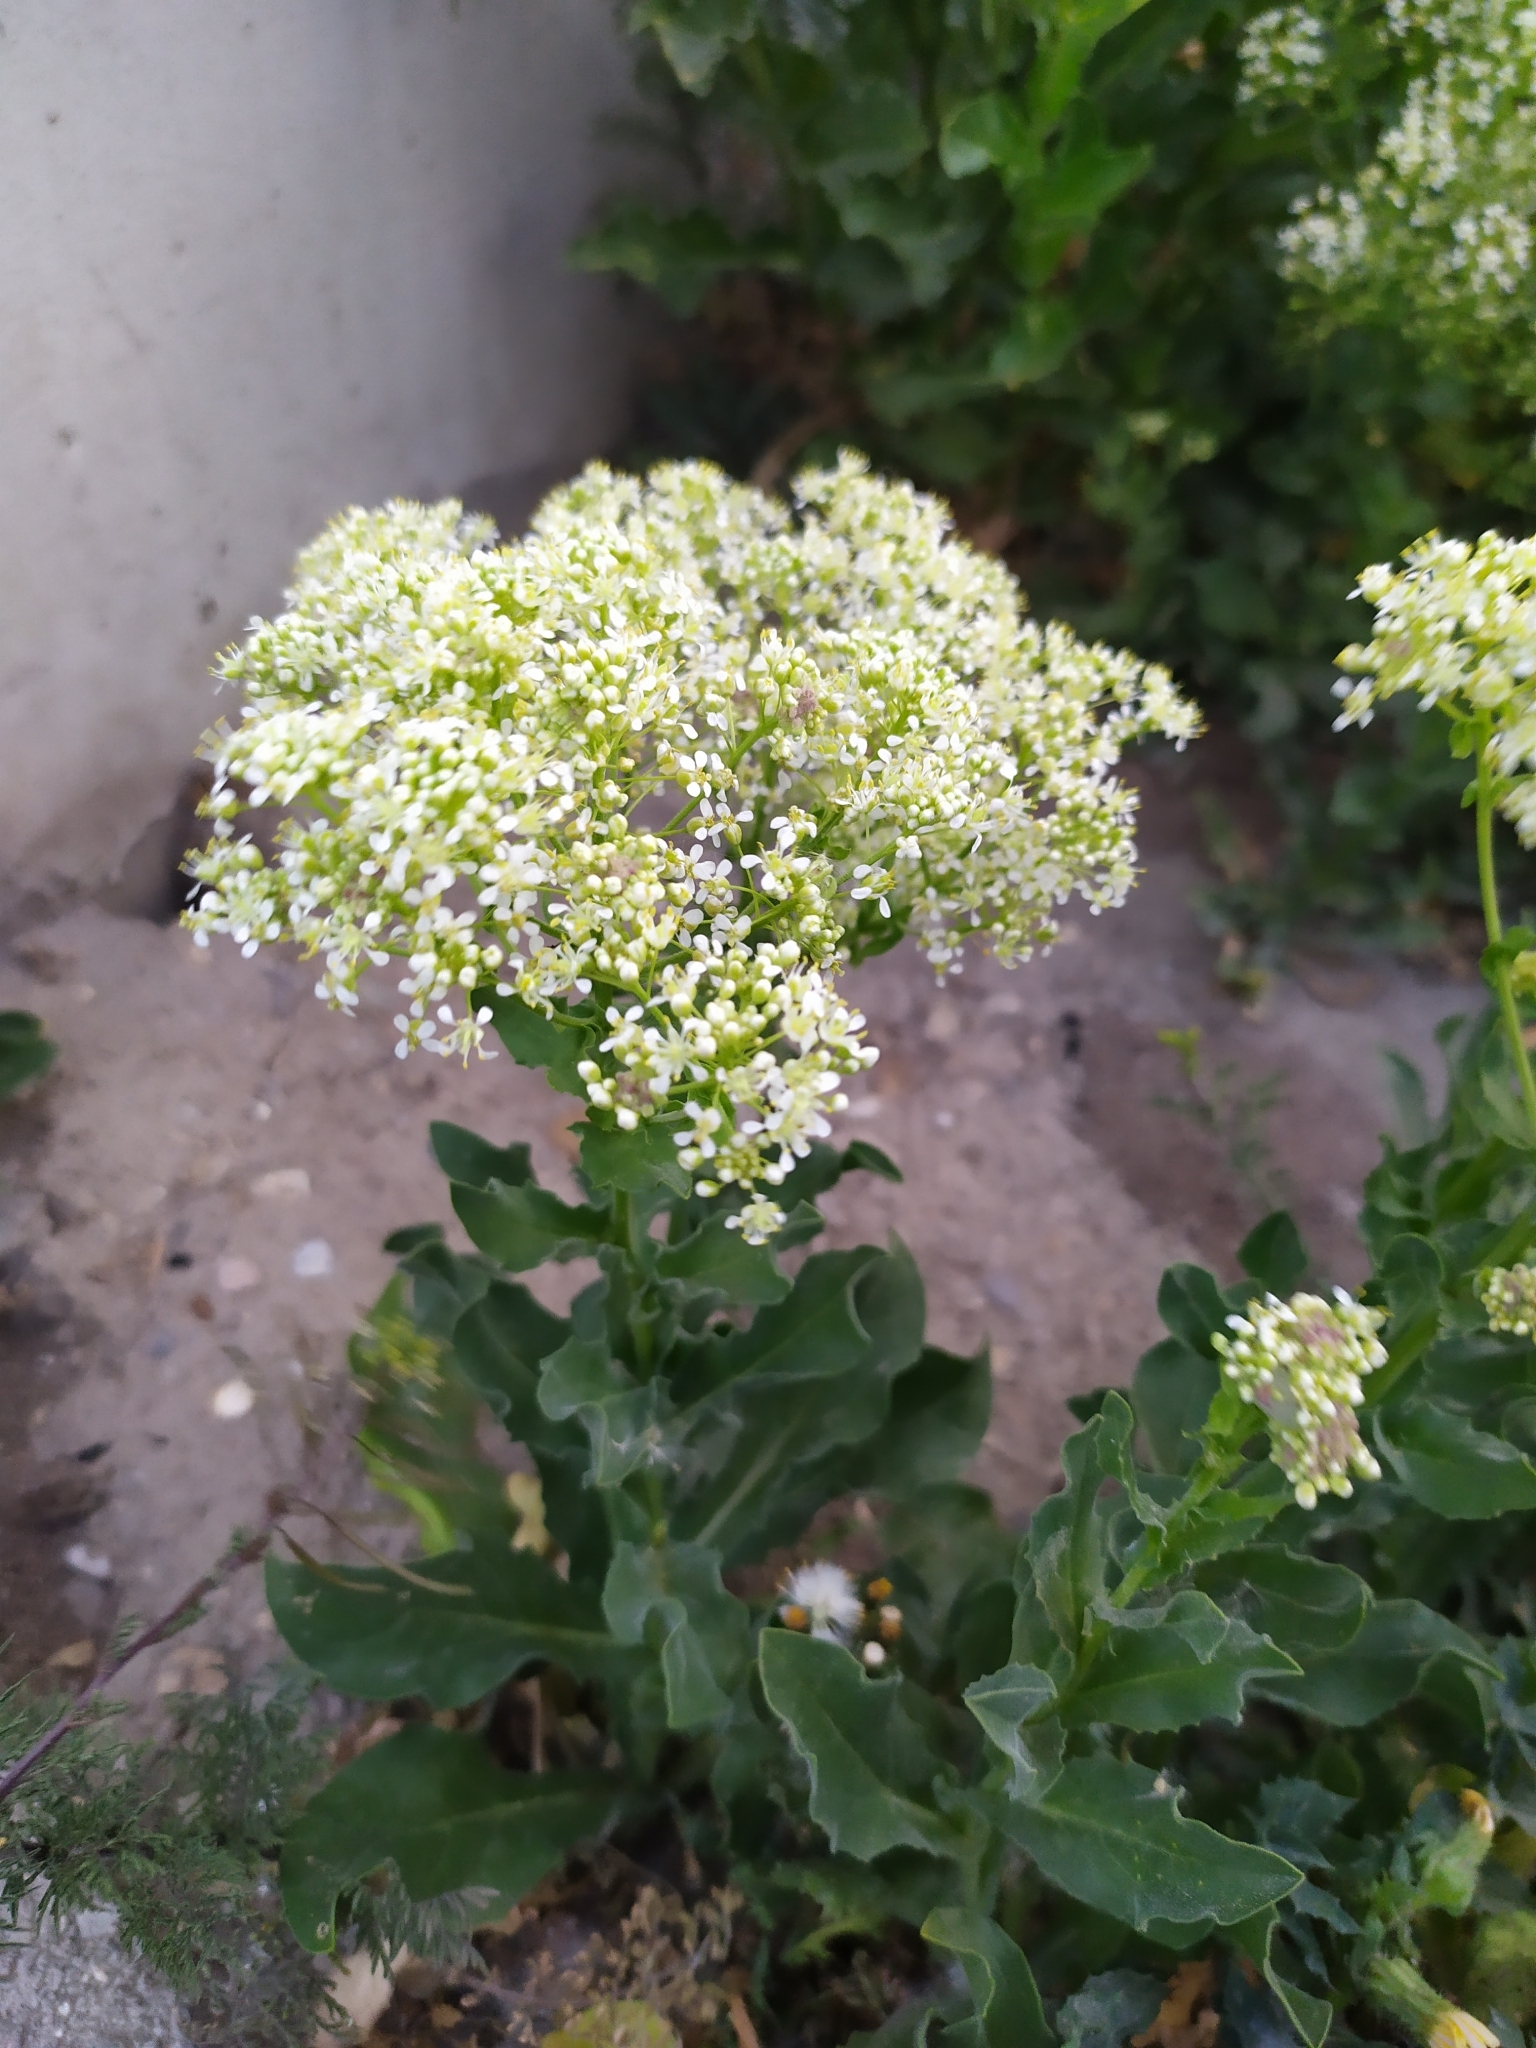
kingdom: Plantae
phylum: Tracheophyta
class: Magnoliopsida
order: Brassicales
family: Brassicaceae
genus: Lepidium
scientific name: Lepidium draba
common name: Hoary cress
